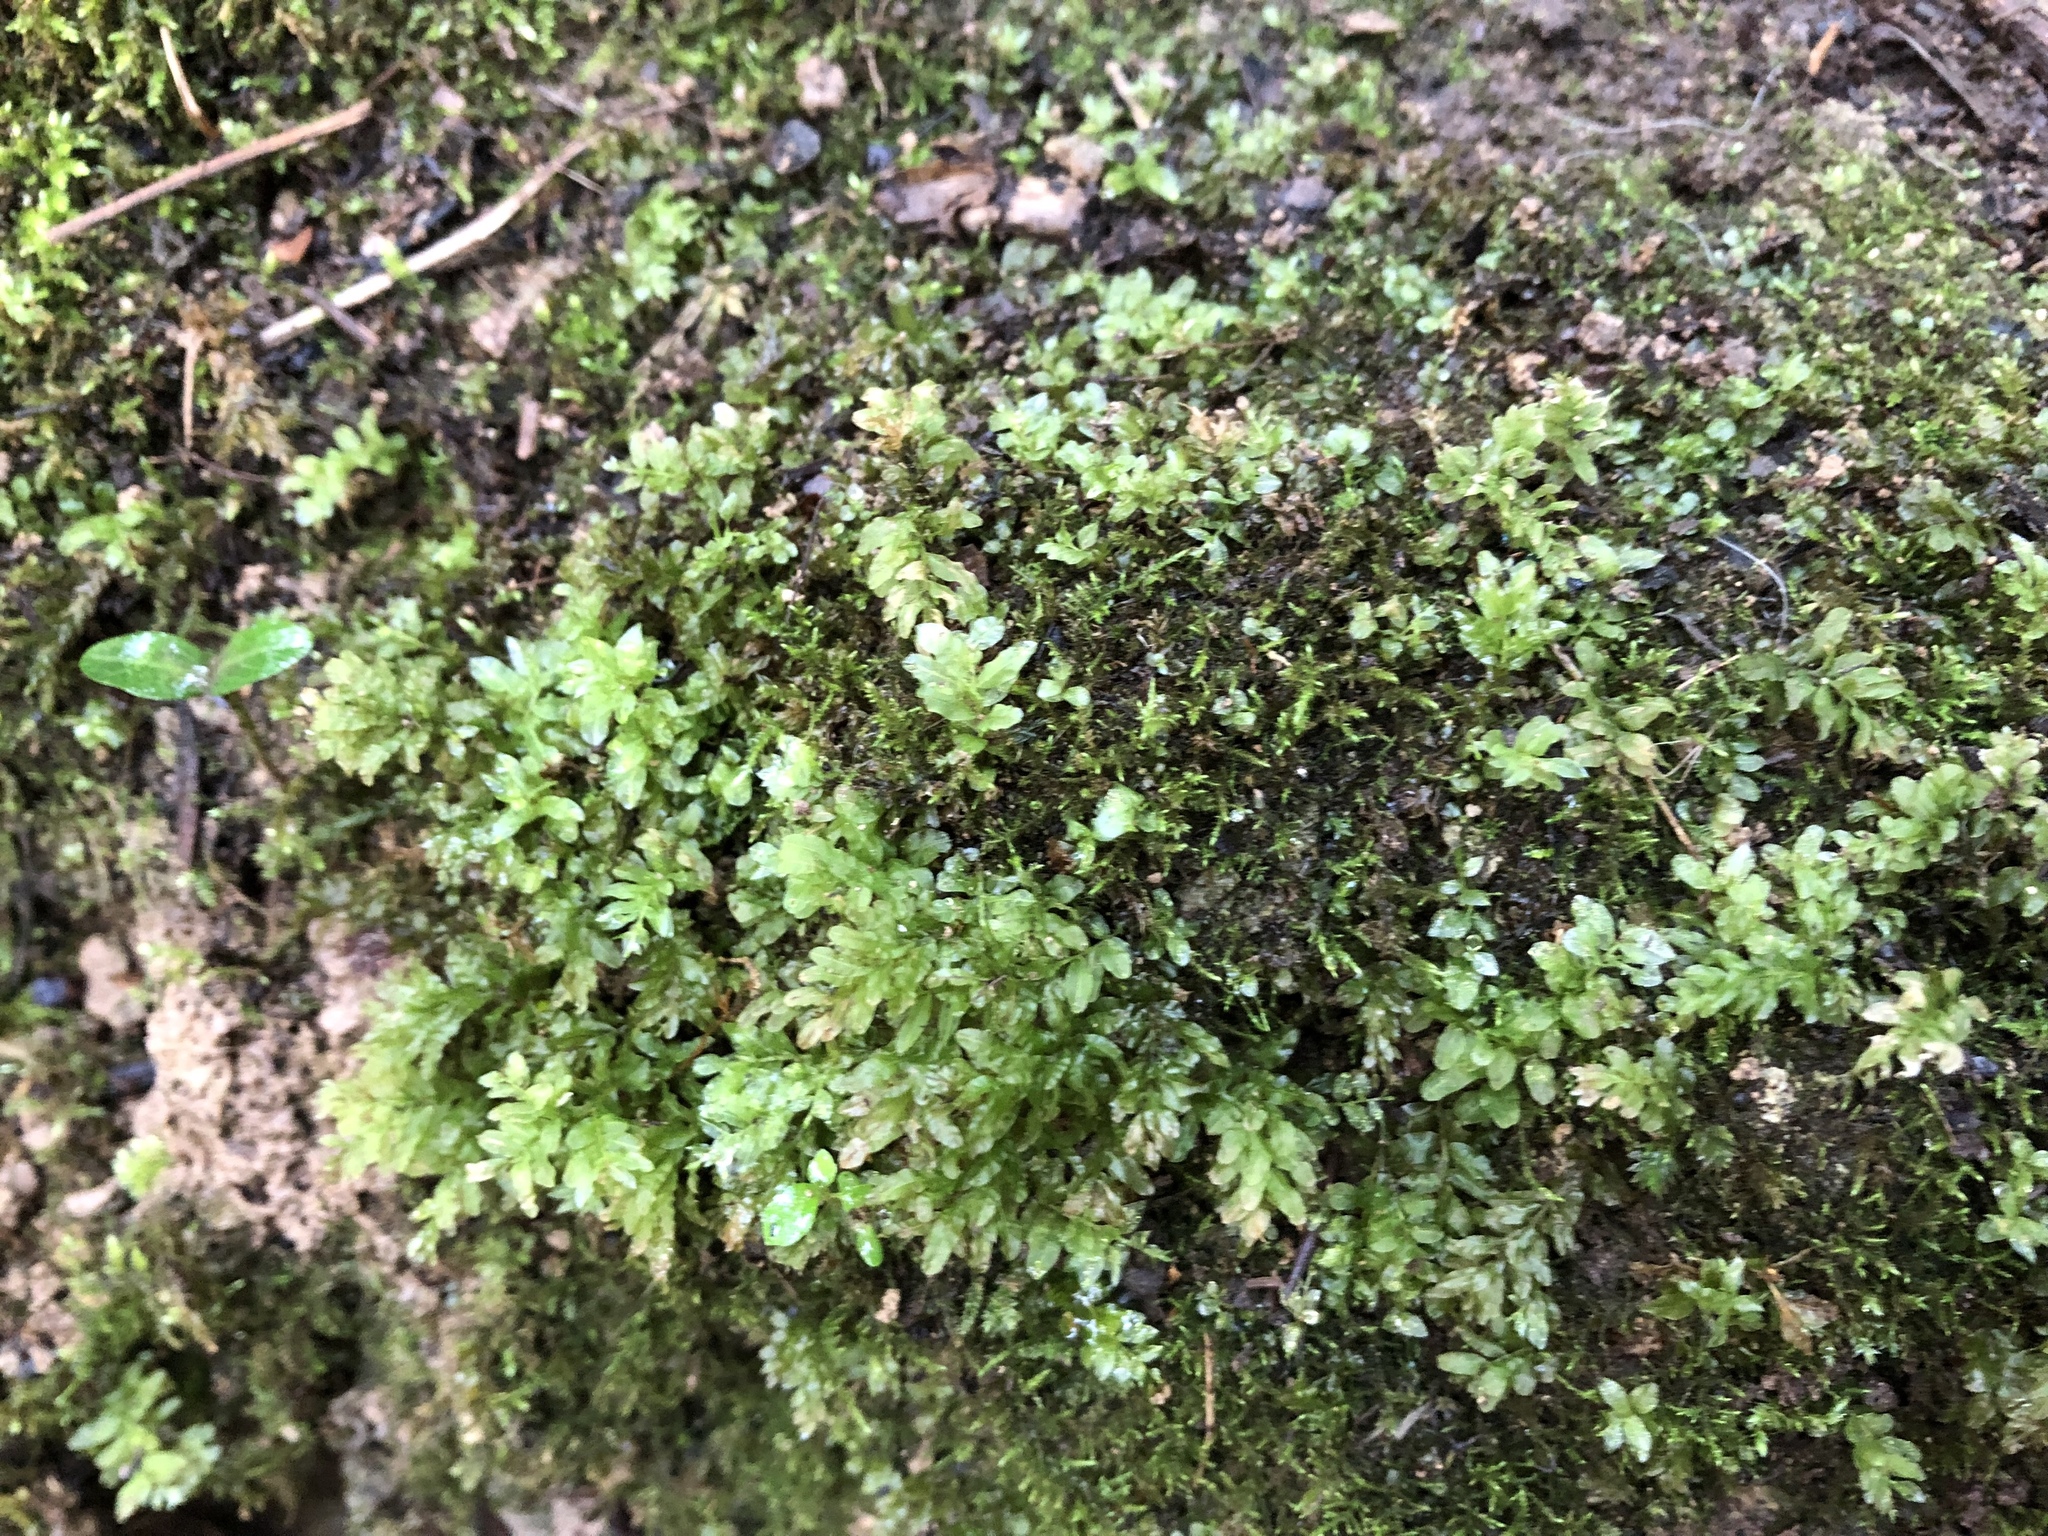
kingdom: Plantae
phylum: Bryophyta
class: Bryopsida
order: Bryales
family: Mniaceae
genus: Plagiomnium
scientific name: Plagiomnium undulatum
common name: Hart's-tongue thyme-moss
